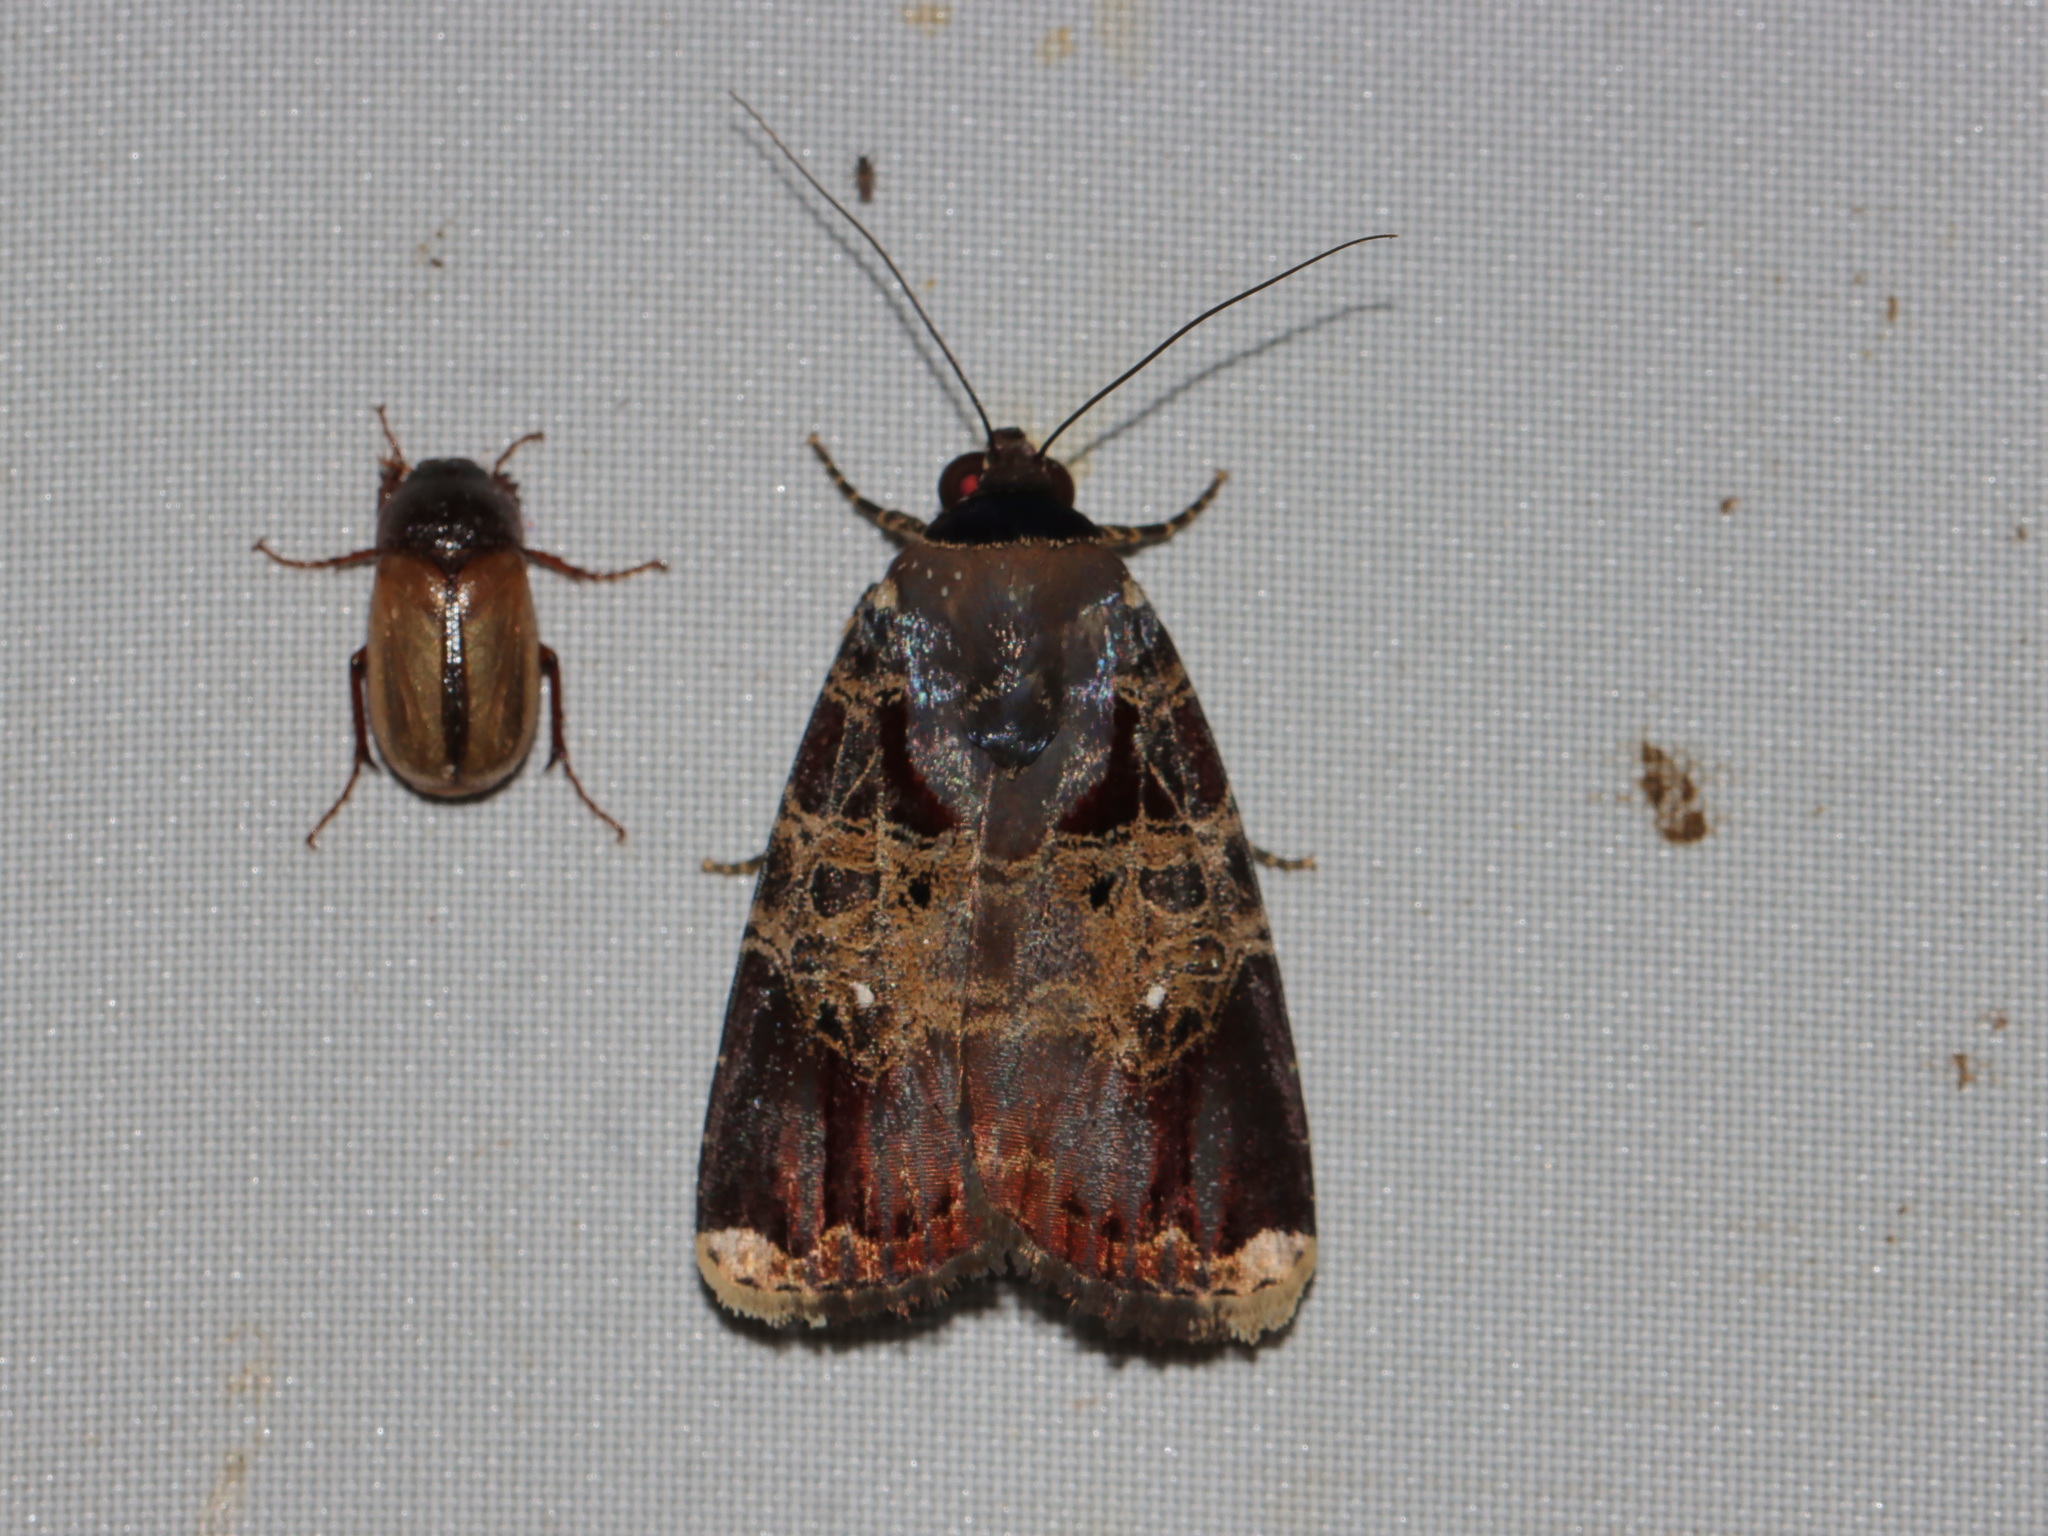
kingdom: Animalia
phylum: Arthropoda
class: Insecta
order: Lepidoptera
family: Noctuidae
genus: Callyna
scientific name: Callyna jugaria
